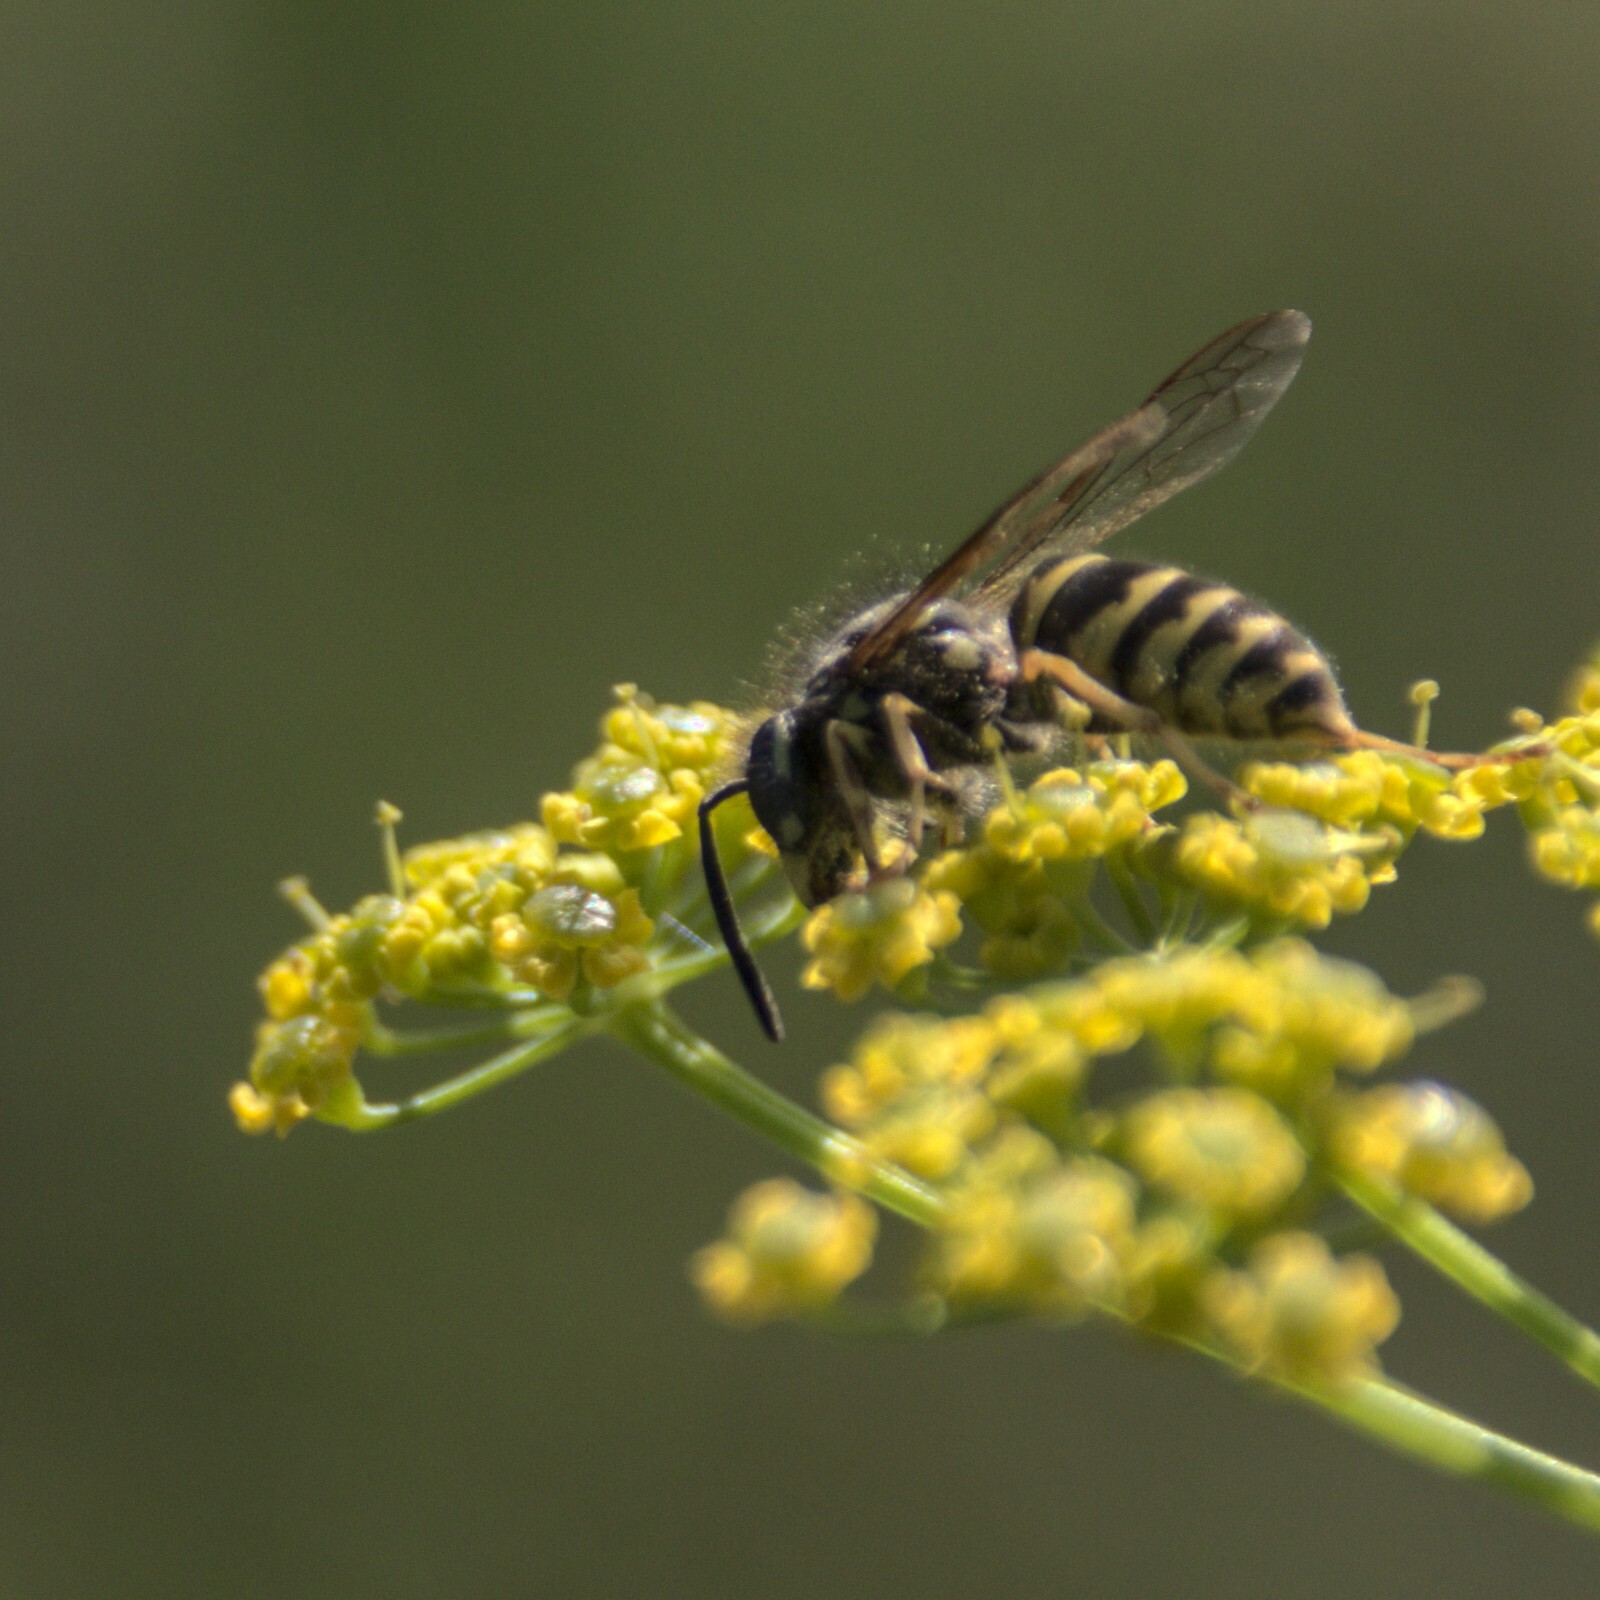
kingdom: Animalia
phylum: Arthropoda
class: Insecta
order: Hymenoptera
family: Vespidae
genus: Vespula
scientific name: Vespula vulgaris
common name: Common wasp
